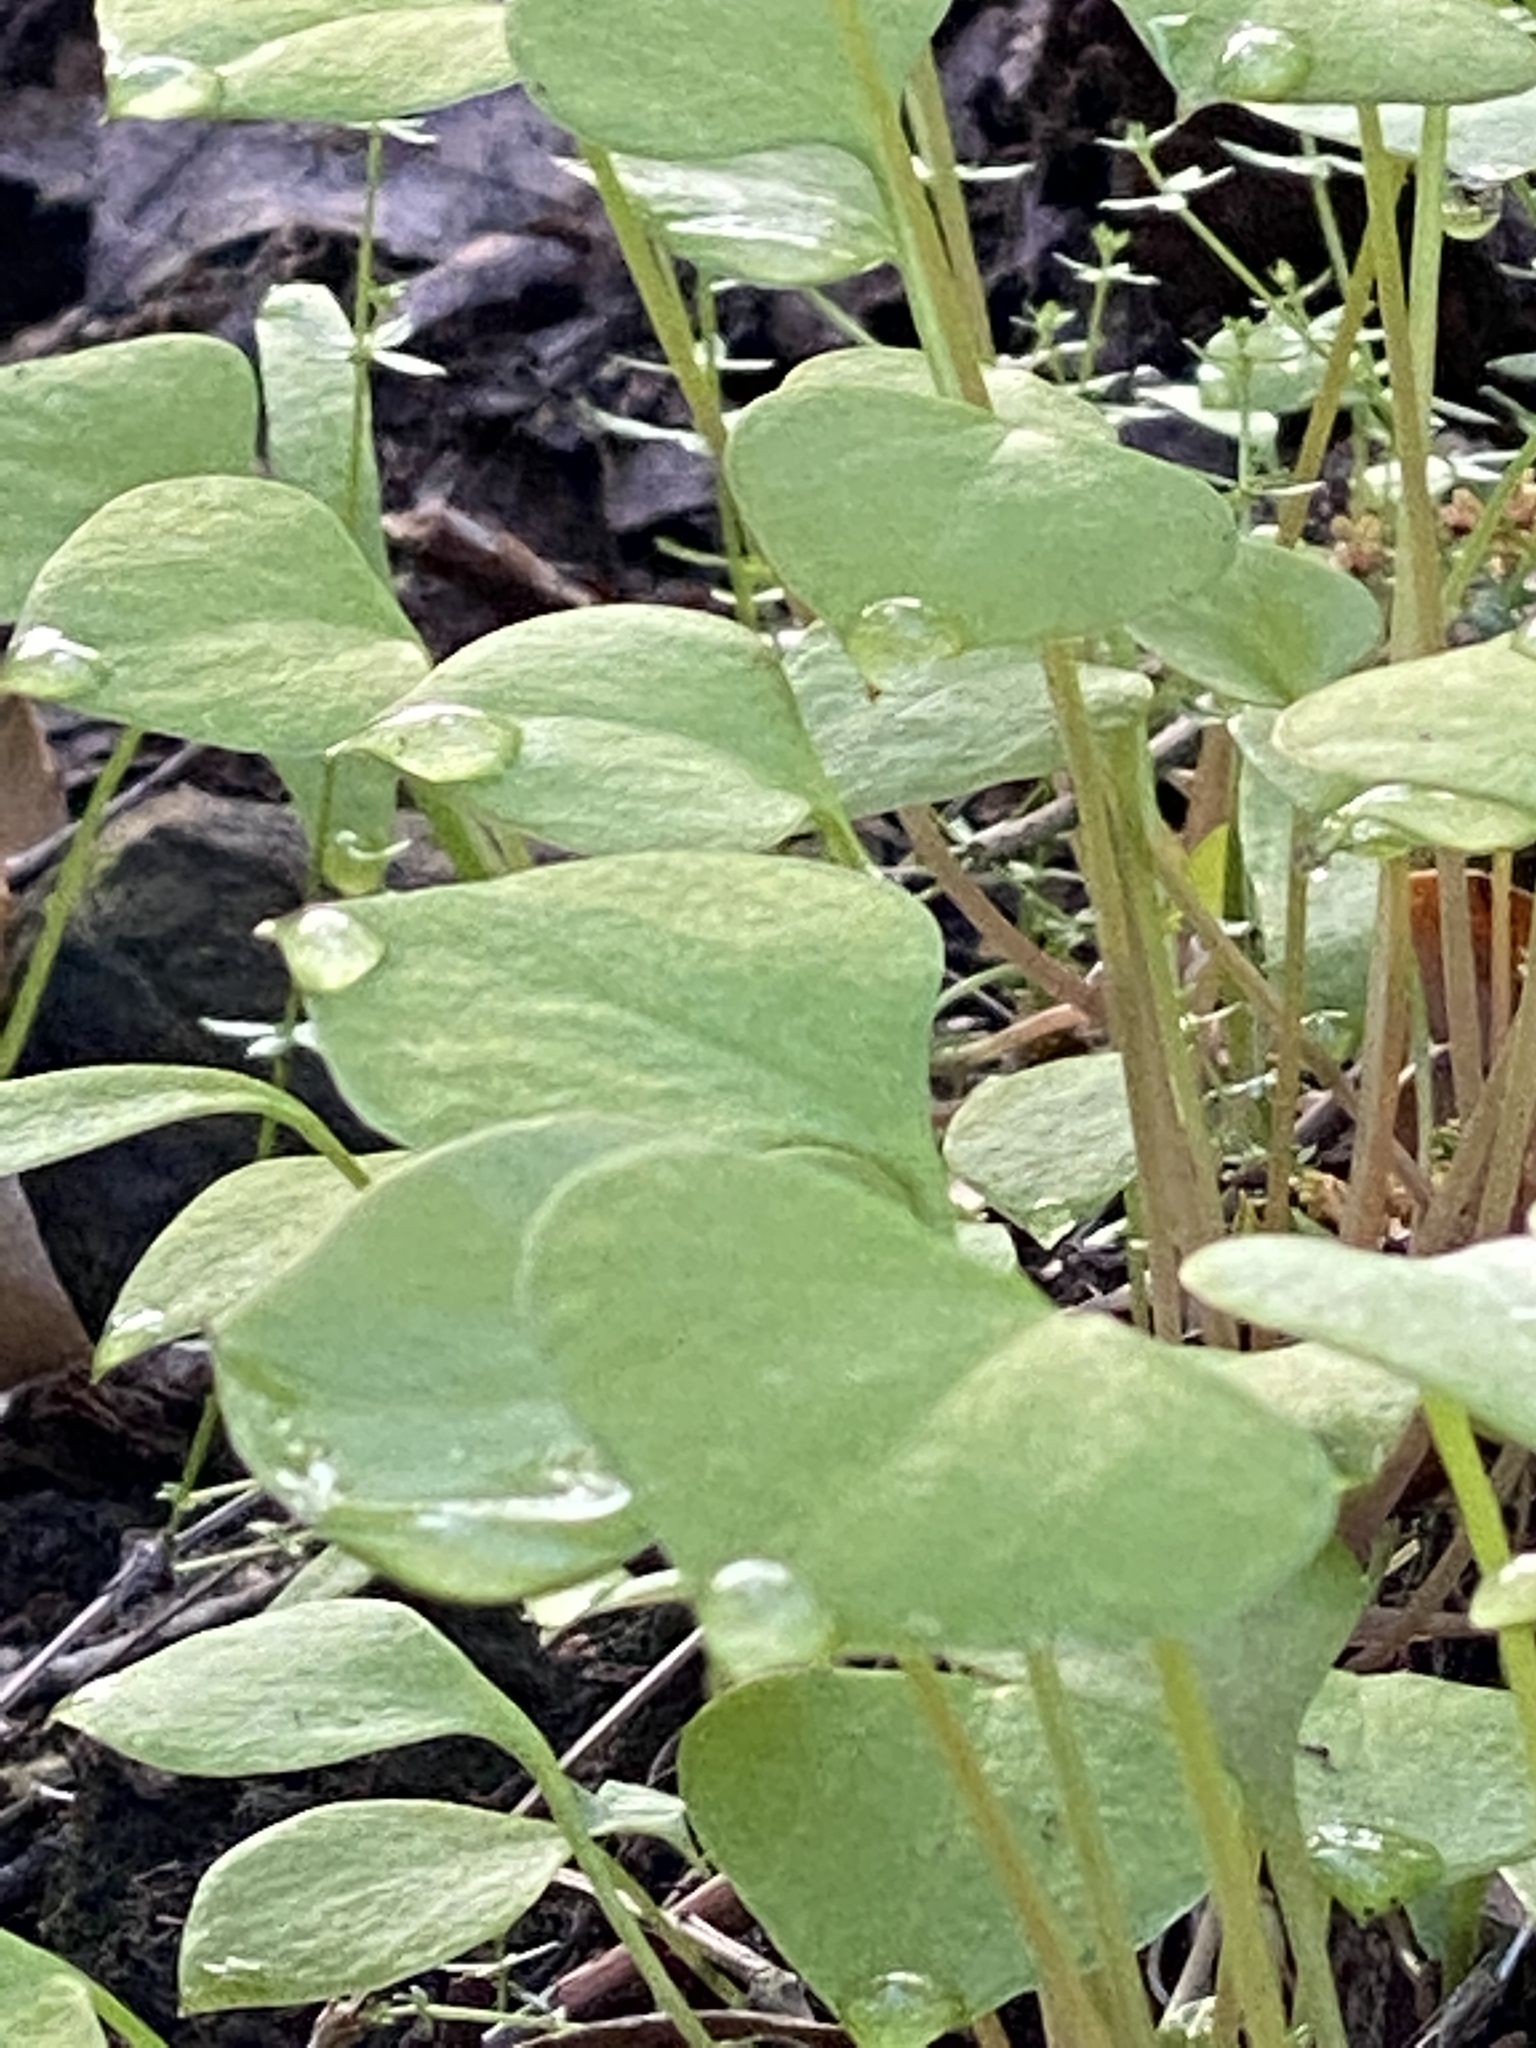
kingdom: Plantae
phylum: Tracheophyta
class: Magnoliopsida
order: Caryophyllales
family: Montiaceae
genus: Claytonia
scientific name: Claytonia perfoliata
